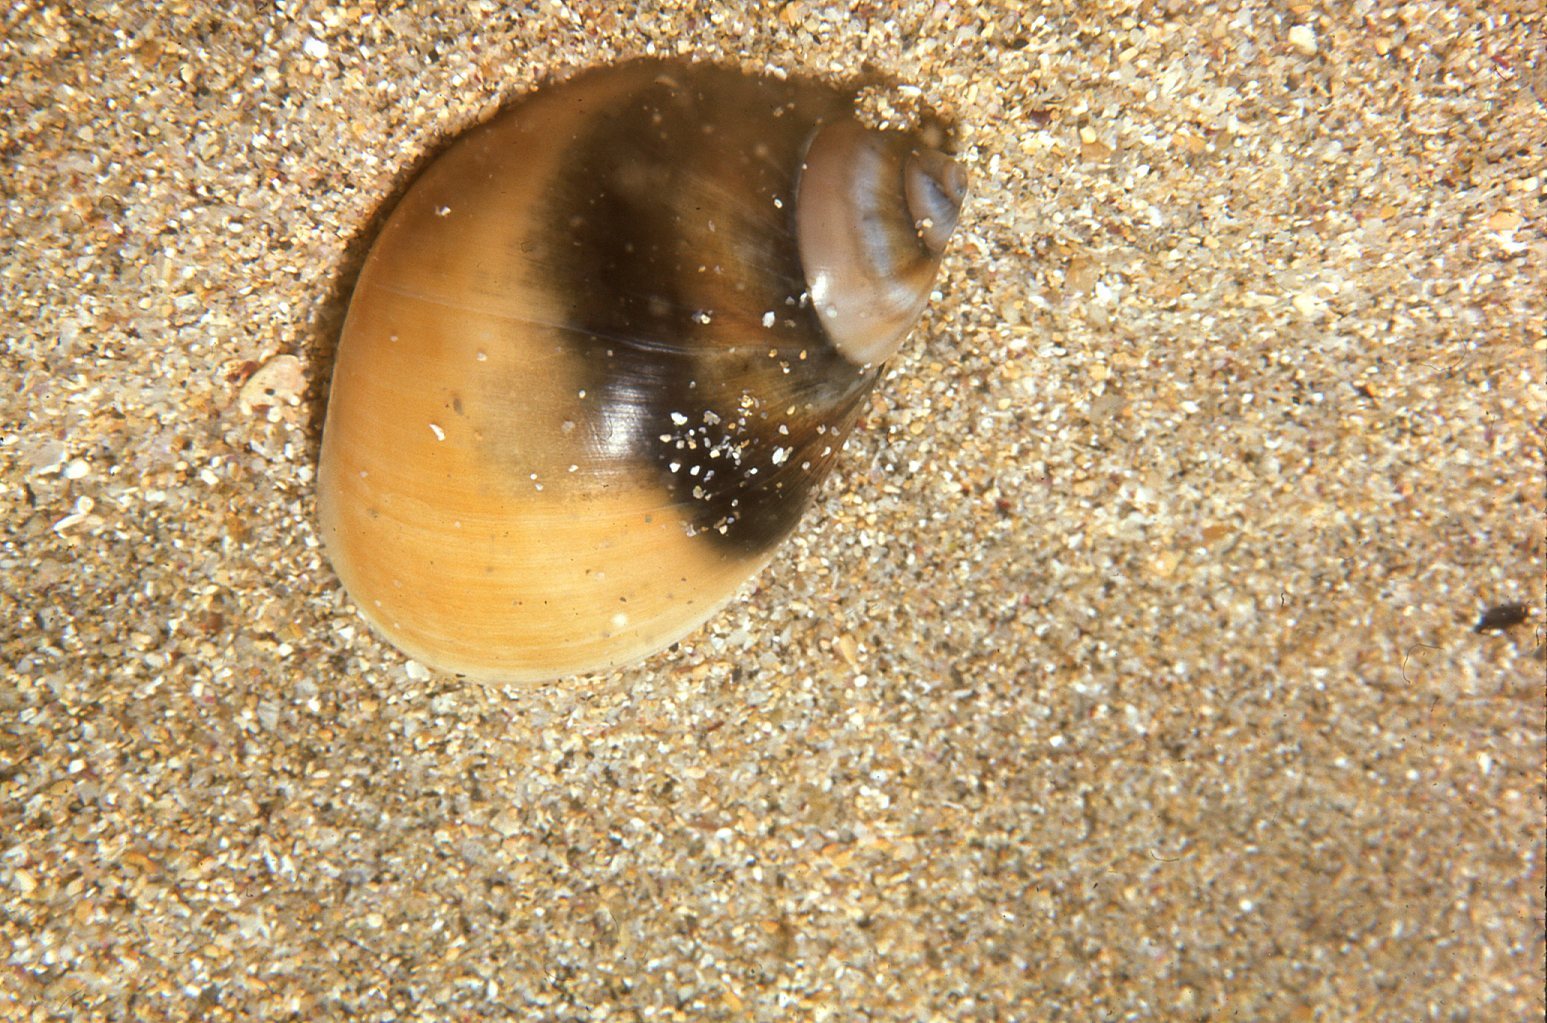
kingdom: Animalia
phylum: Mollusca
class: Gastropoda
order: Littorinimorpha
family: Naticidae
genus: Conuber
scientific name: Conuber conicum
